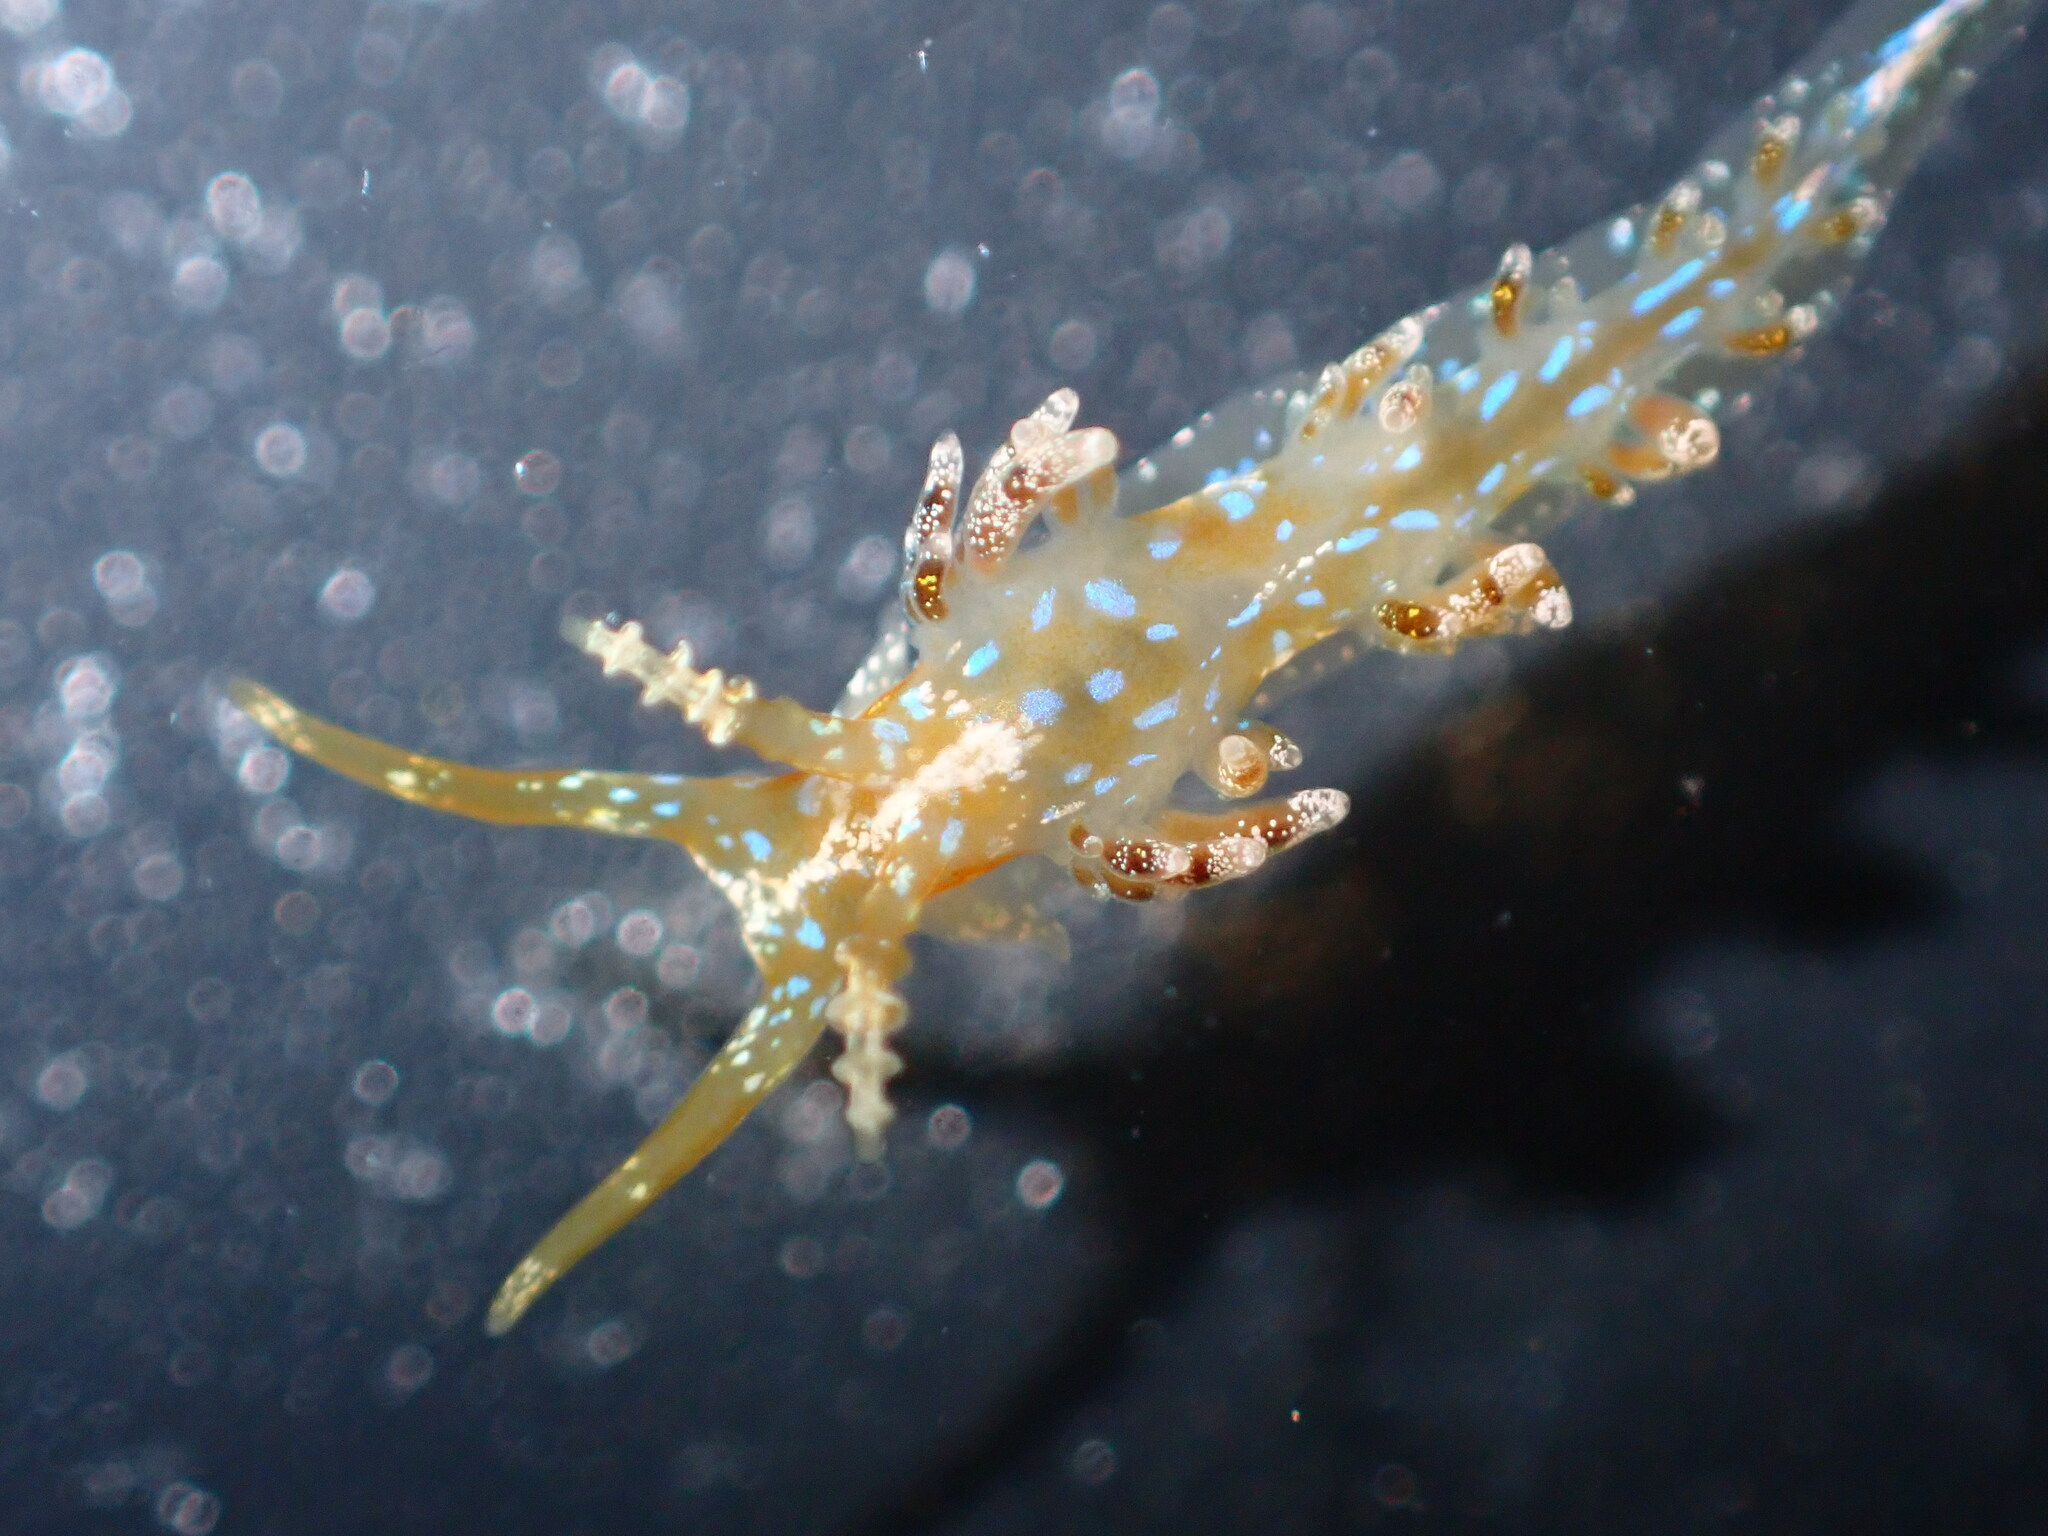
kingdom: Animalia
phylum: Mollusca
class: Gastropoda
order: Nudibranchia
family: Facelinidae
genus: Austraeolis
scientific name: Austraeolis ornata
